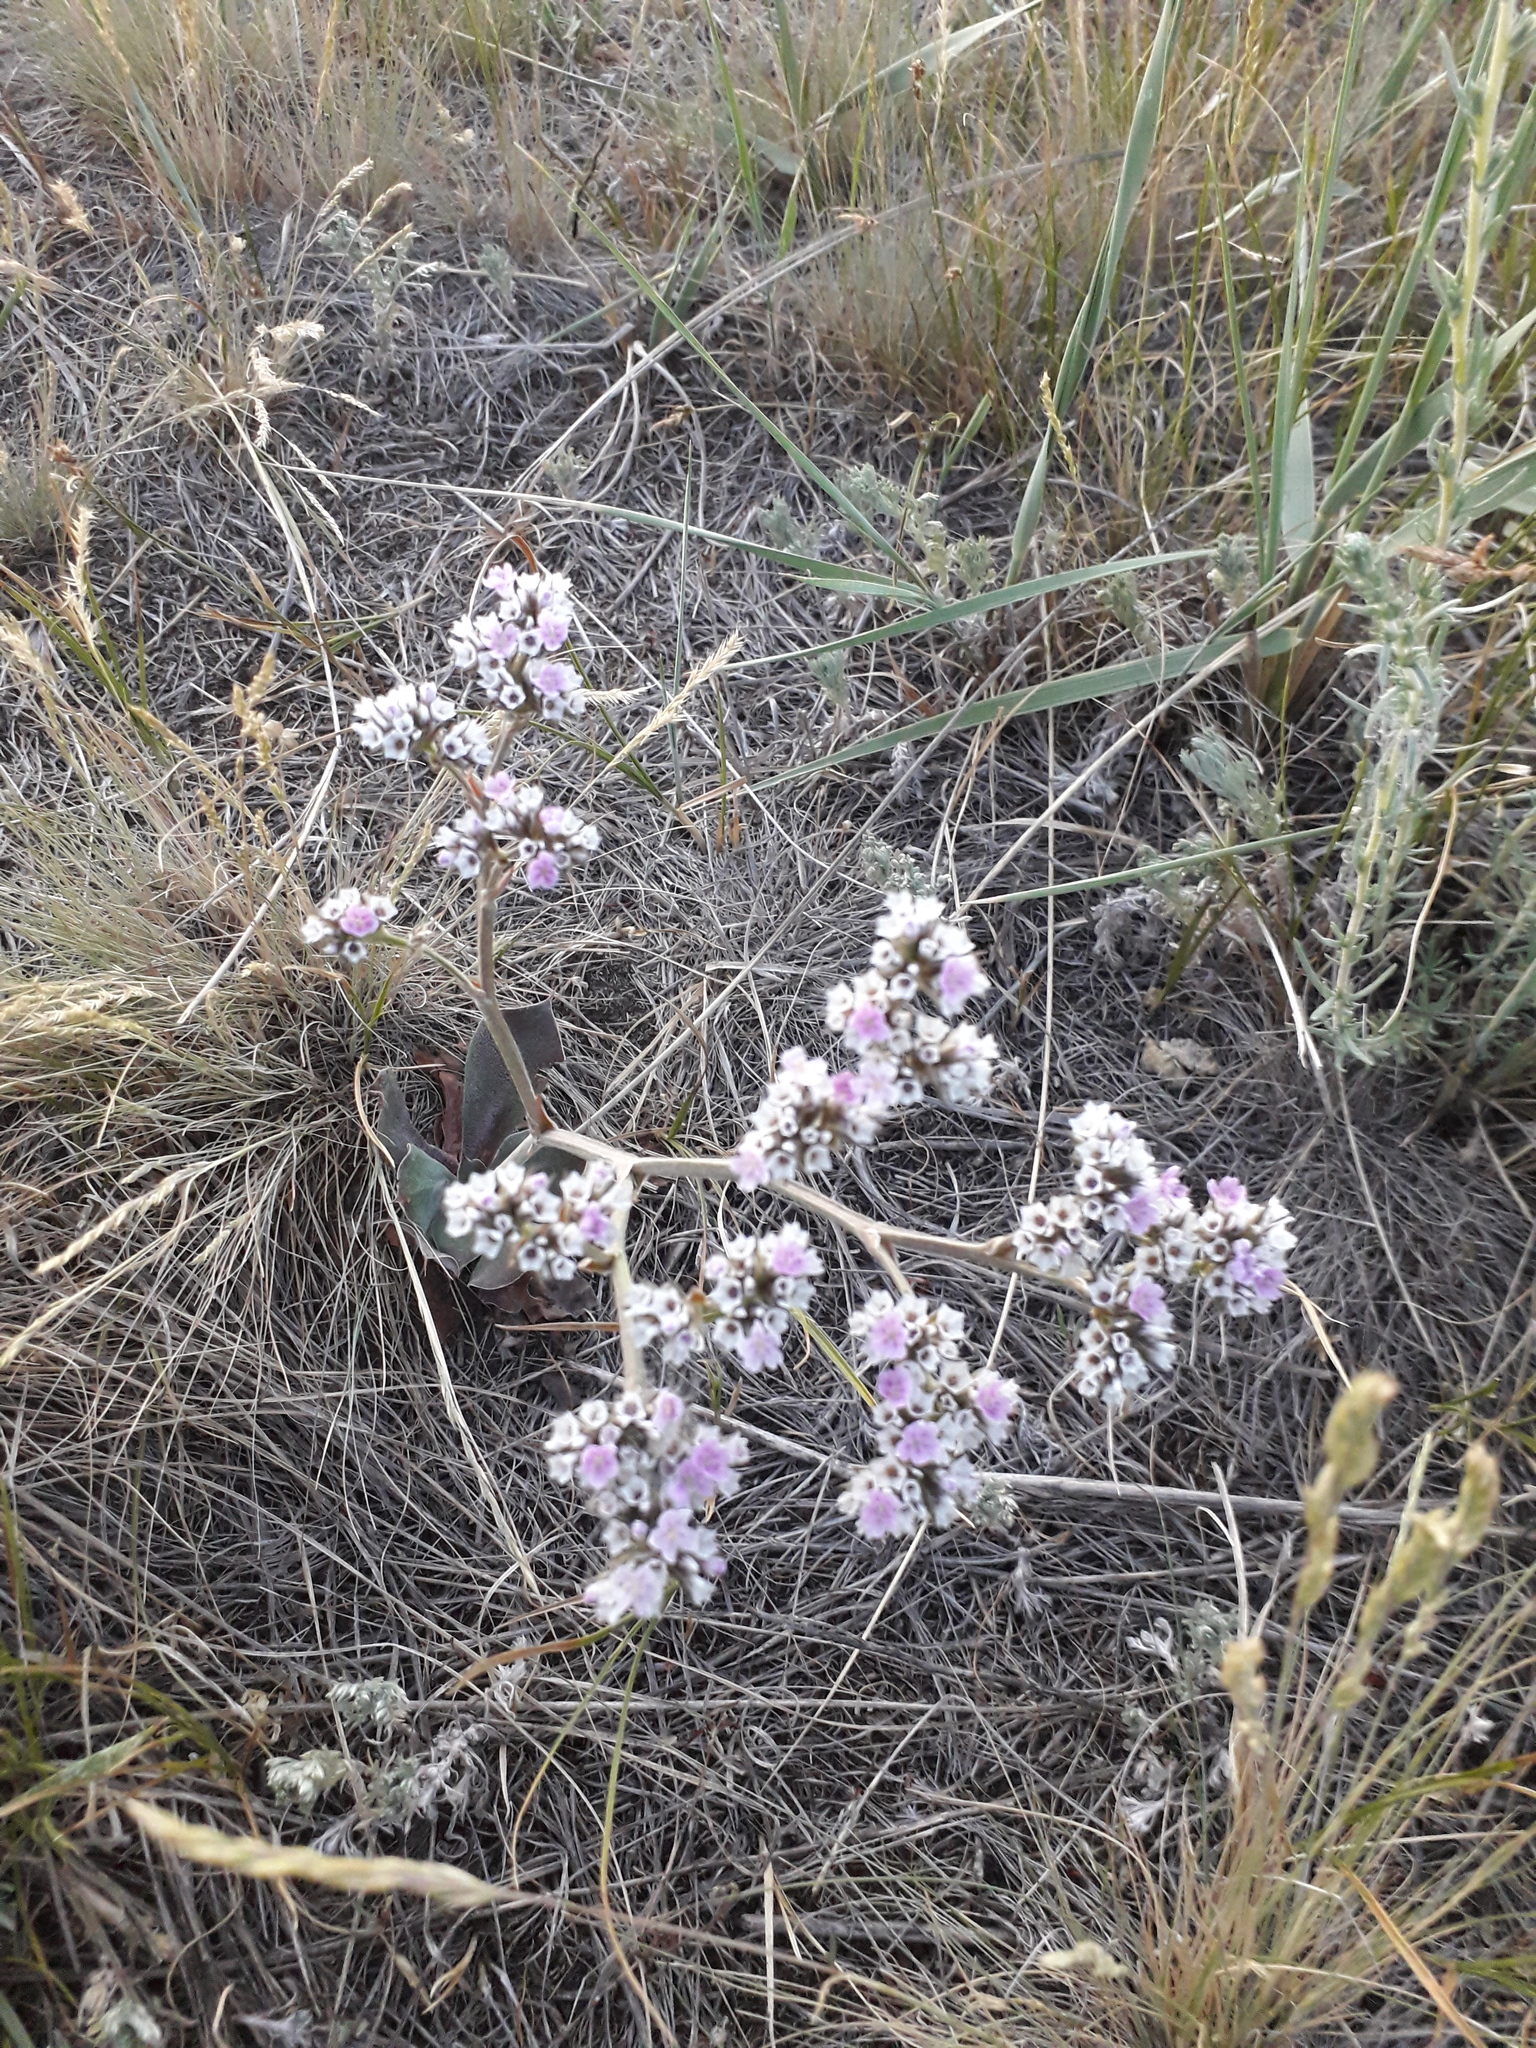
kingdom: Plantae
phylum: Tracheophyta
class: Magnoliopsida
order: Caryophyllales
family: Plumbaginaceae
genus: Goniolimon
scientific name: Goniolimon speciosum
